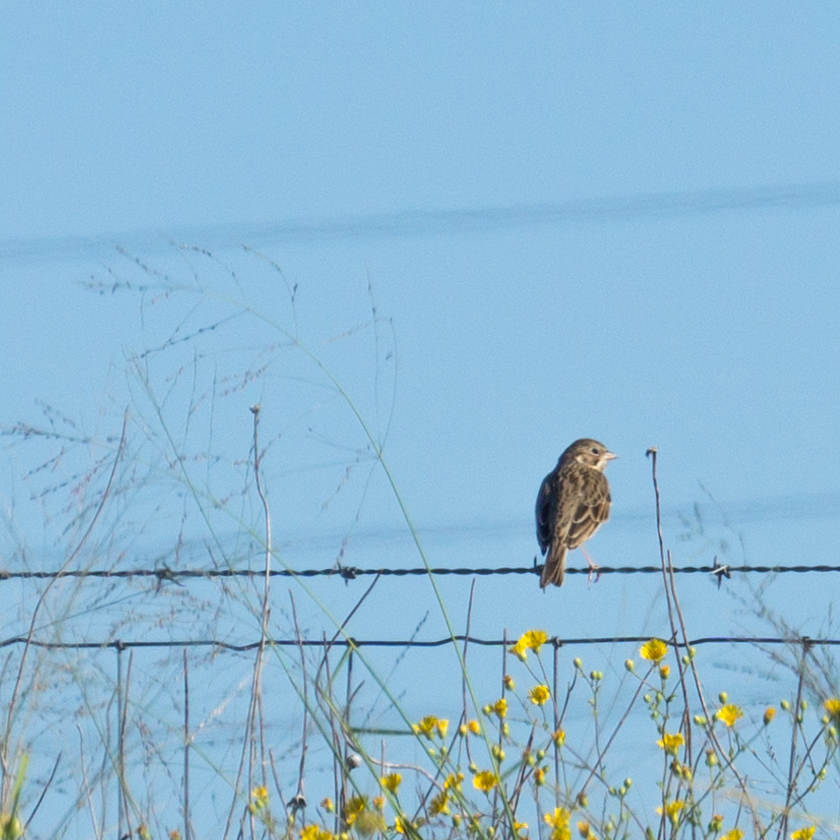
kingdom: Animalia
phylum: Chordata
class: Aves
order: Passeriformes
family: Passerellidae
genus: Pooecetes
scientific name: Pooecetes gramineus
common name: Vesper sparrow
